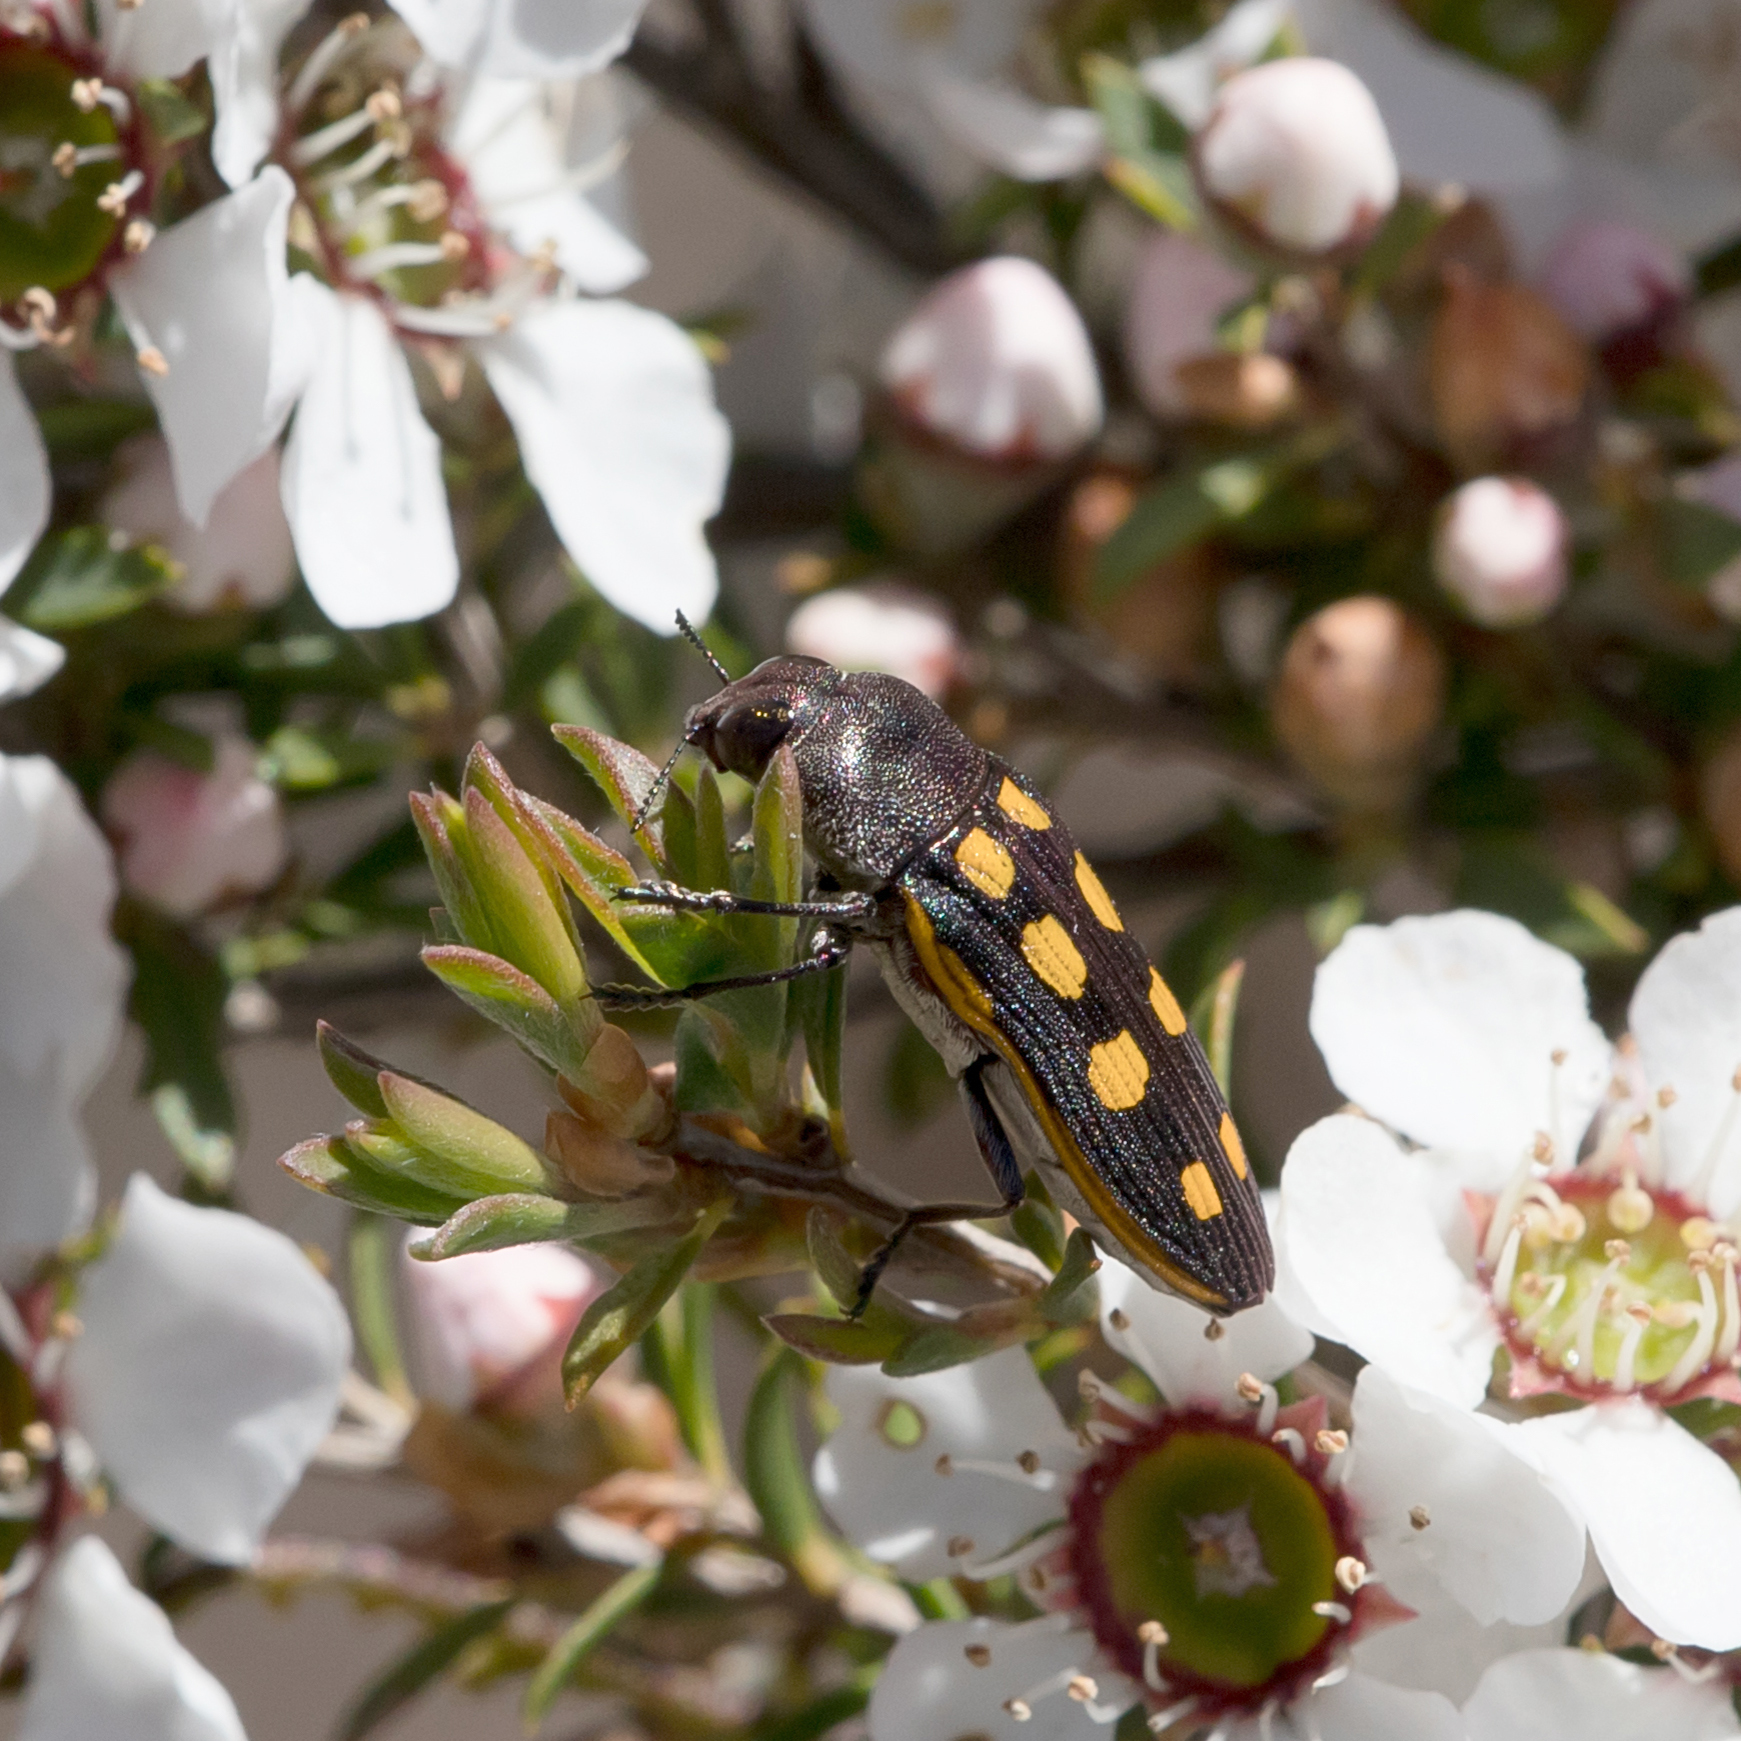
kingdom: Animalia
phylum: Arthropoda
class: Insecta
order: Coleoptera
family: Buprestidae
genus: Castiarina
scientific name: Castiarina xanthopilosa
